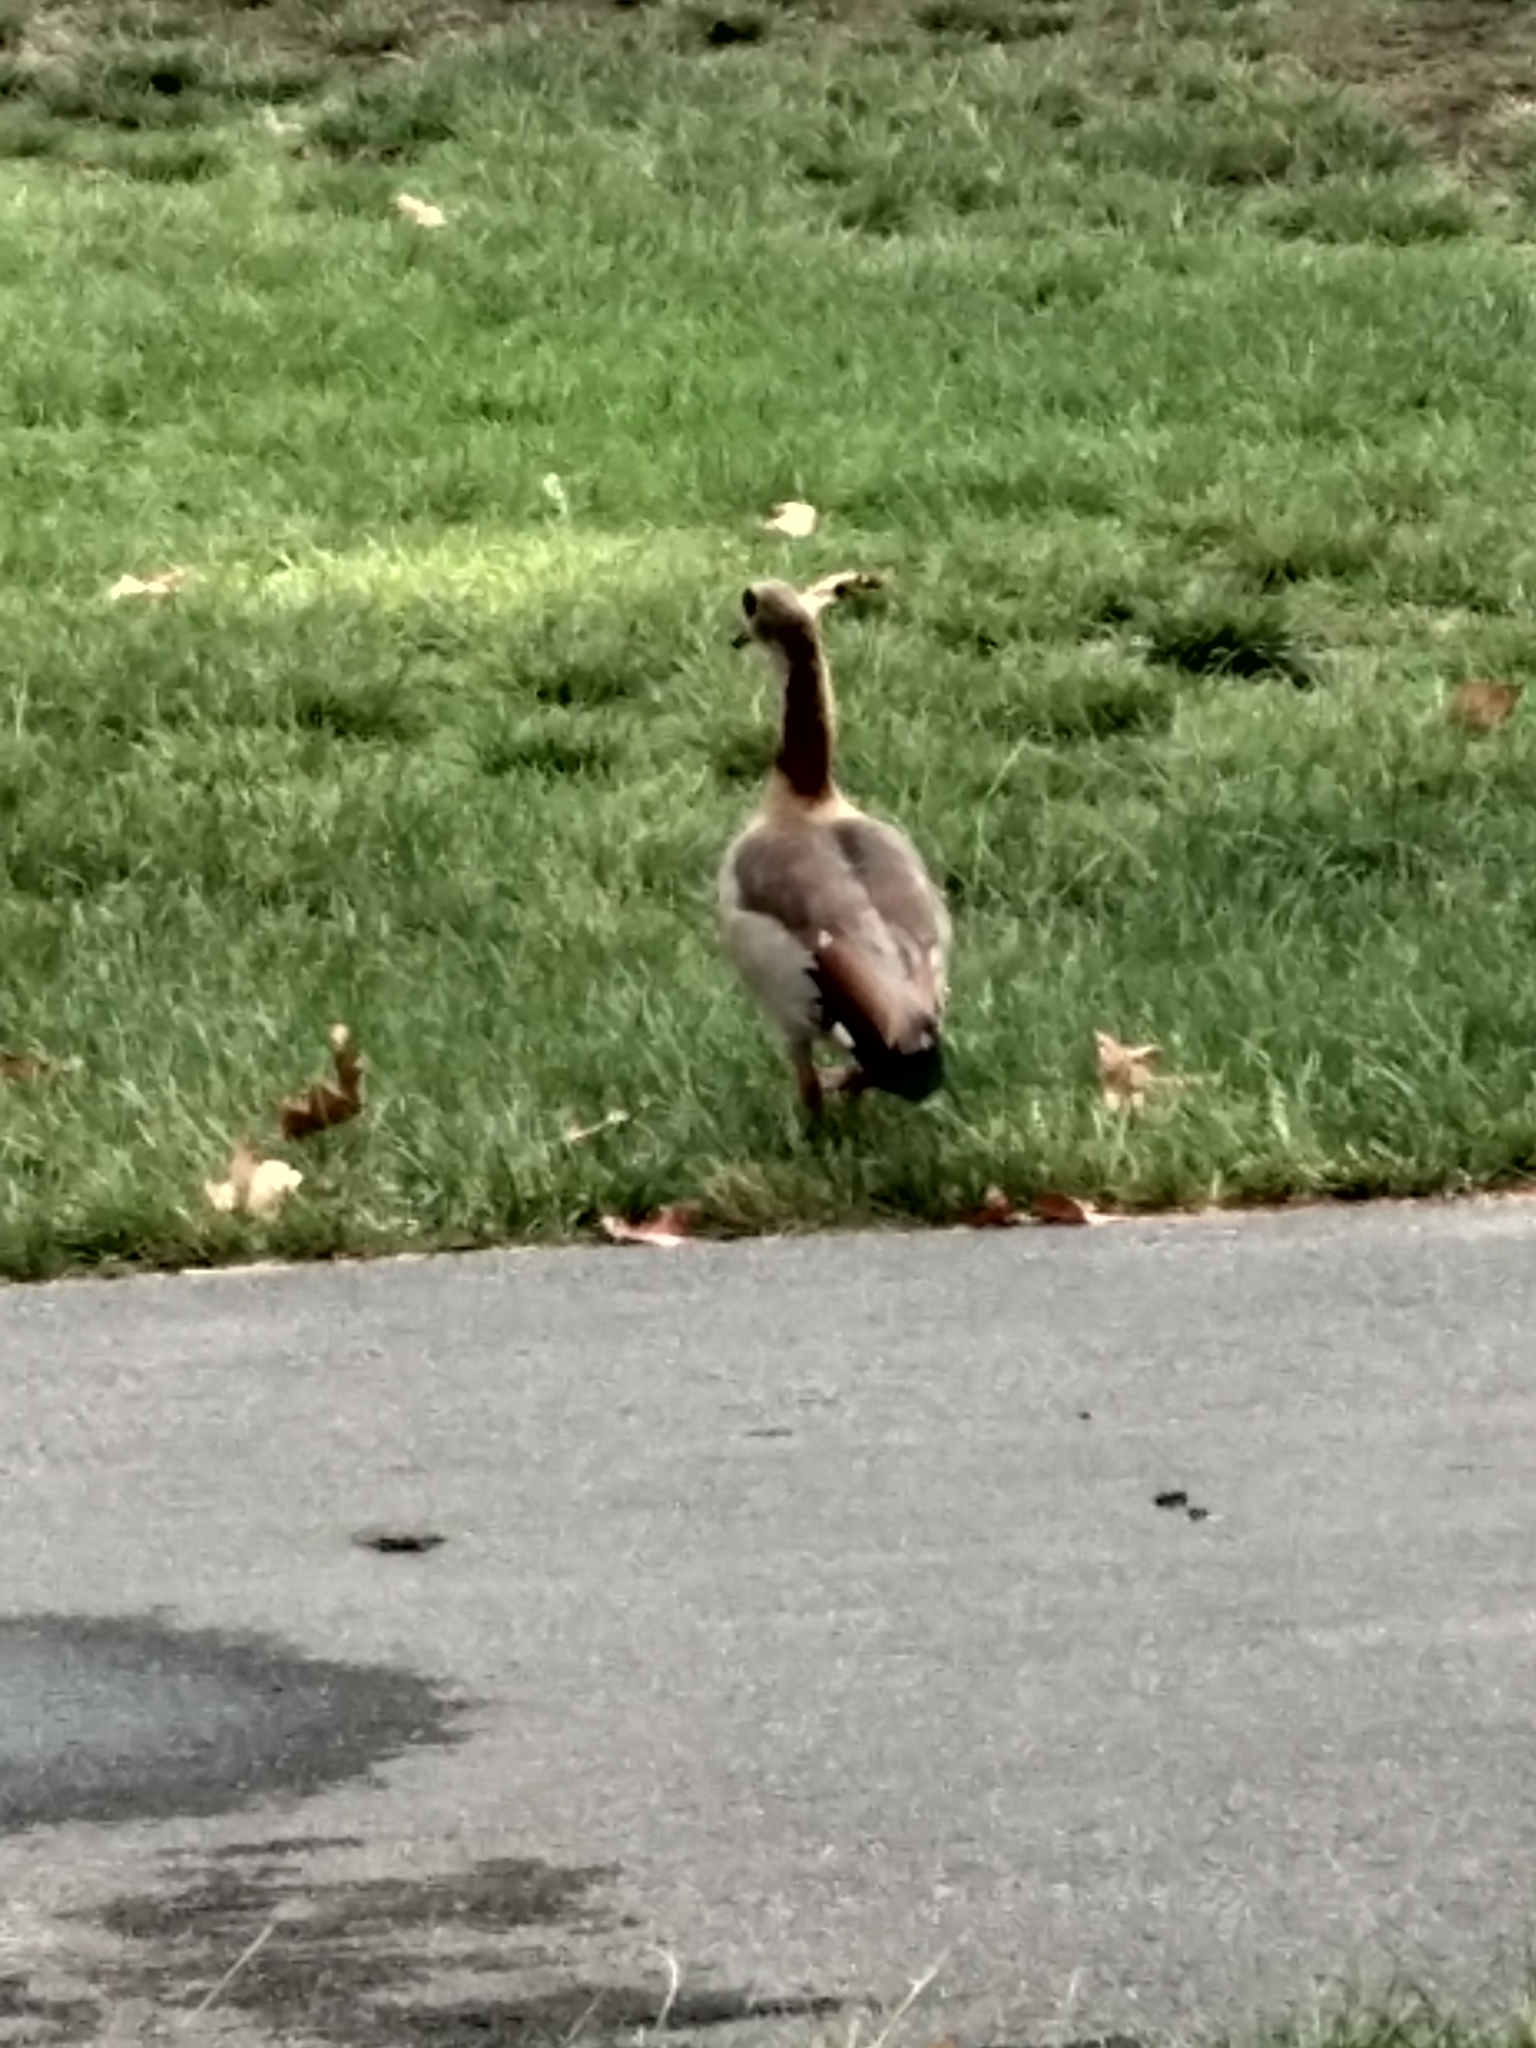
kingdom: Animalia
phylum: Chordata
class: Aves
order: Anseriformes
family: Anatidae
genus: Alopochen
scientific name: Alopochen aegyptiaca
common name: Egyptian goose
